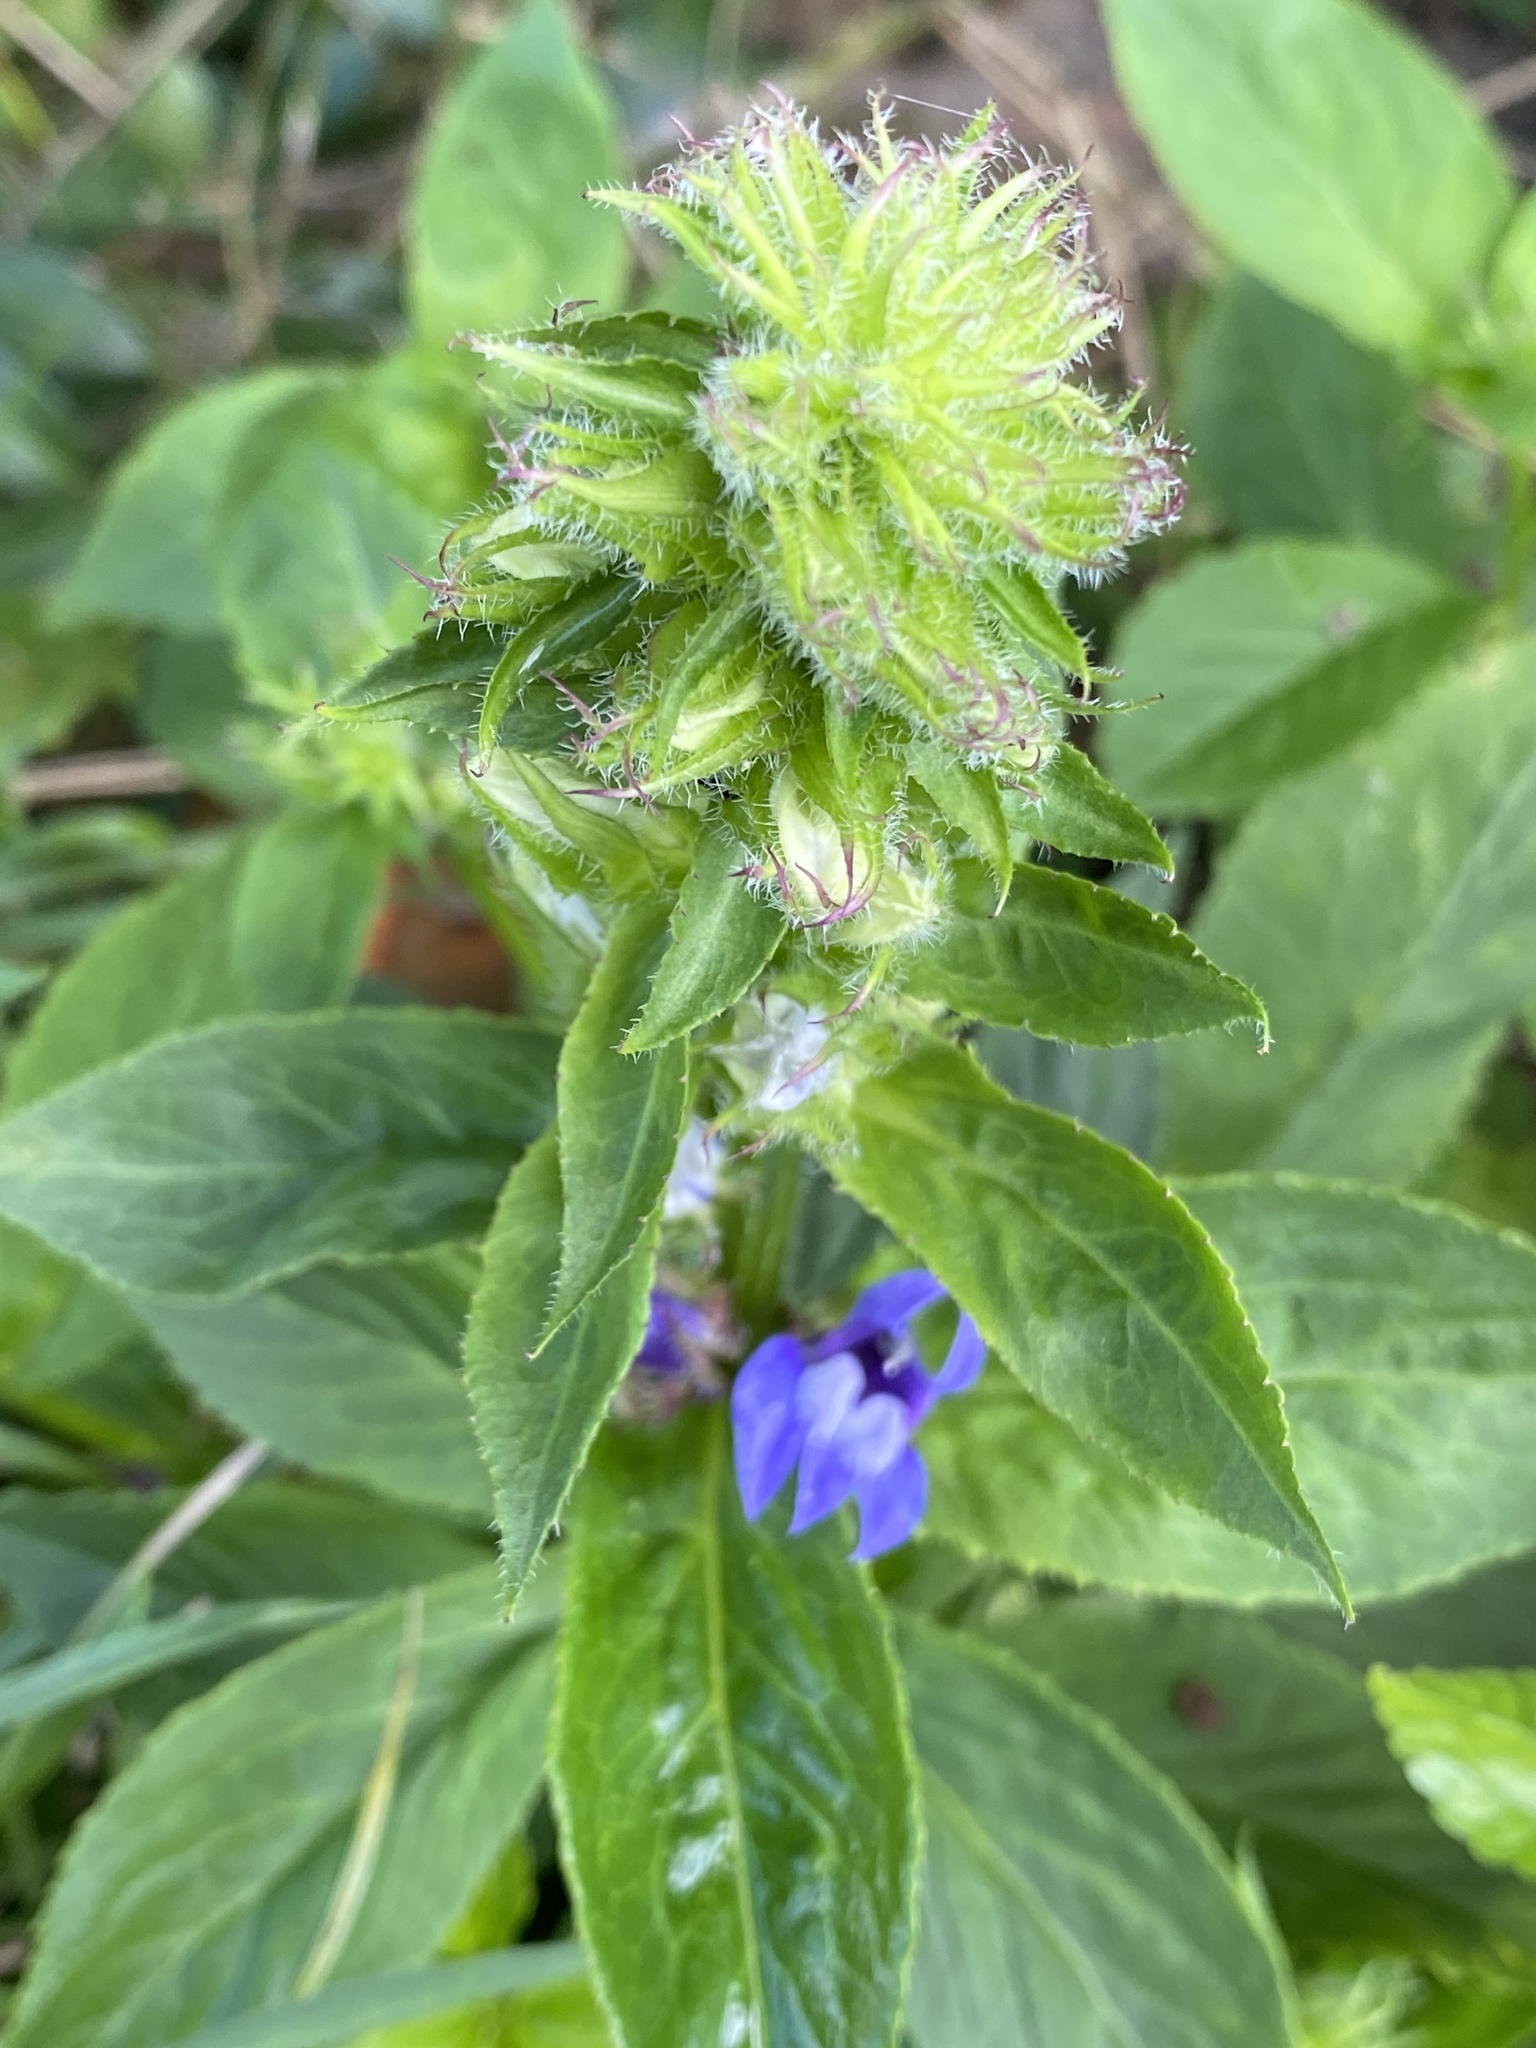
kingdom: Plantae
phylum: Tracheophyta
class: Magnoliopsida
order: Asterales
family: Campanulaceae
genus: Lobelia
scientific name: Lobelia siphilitica
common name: Great lobelia
